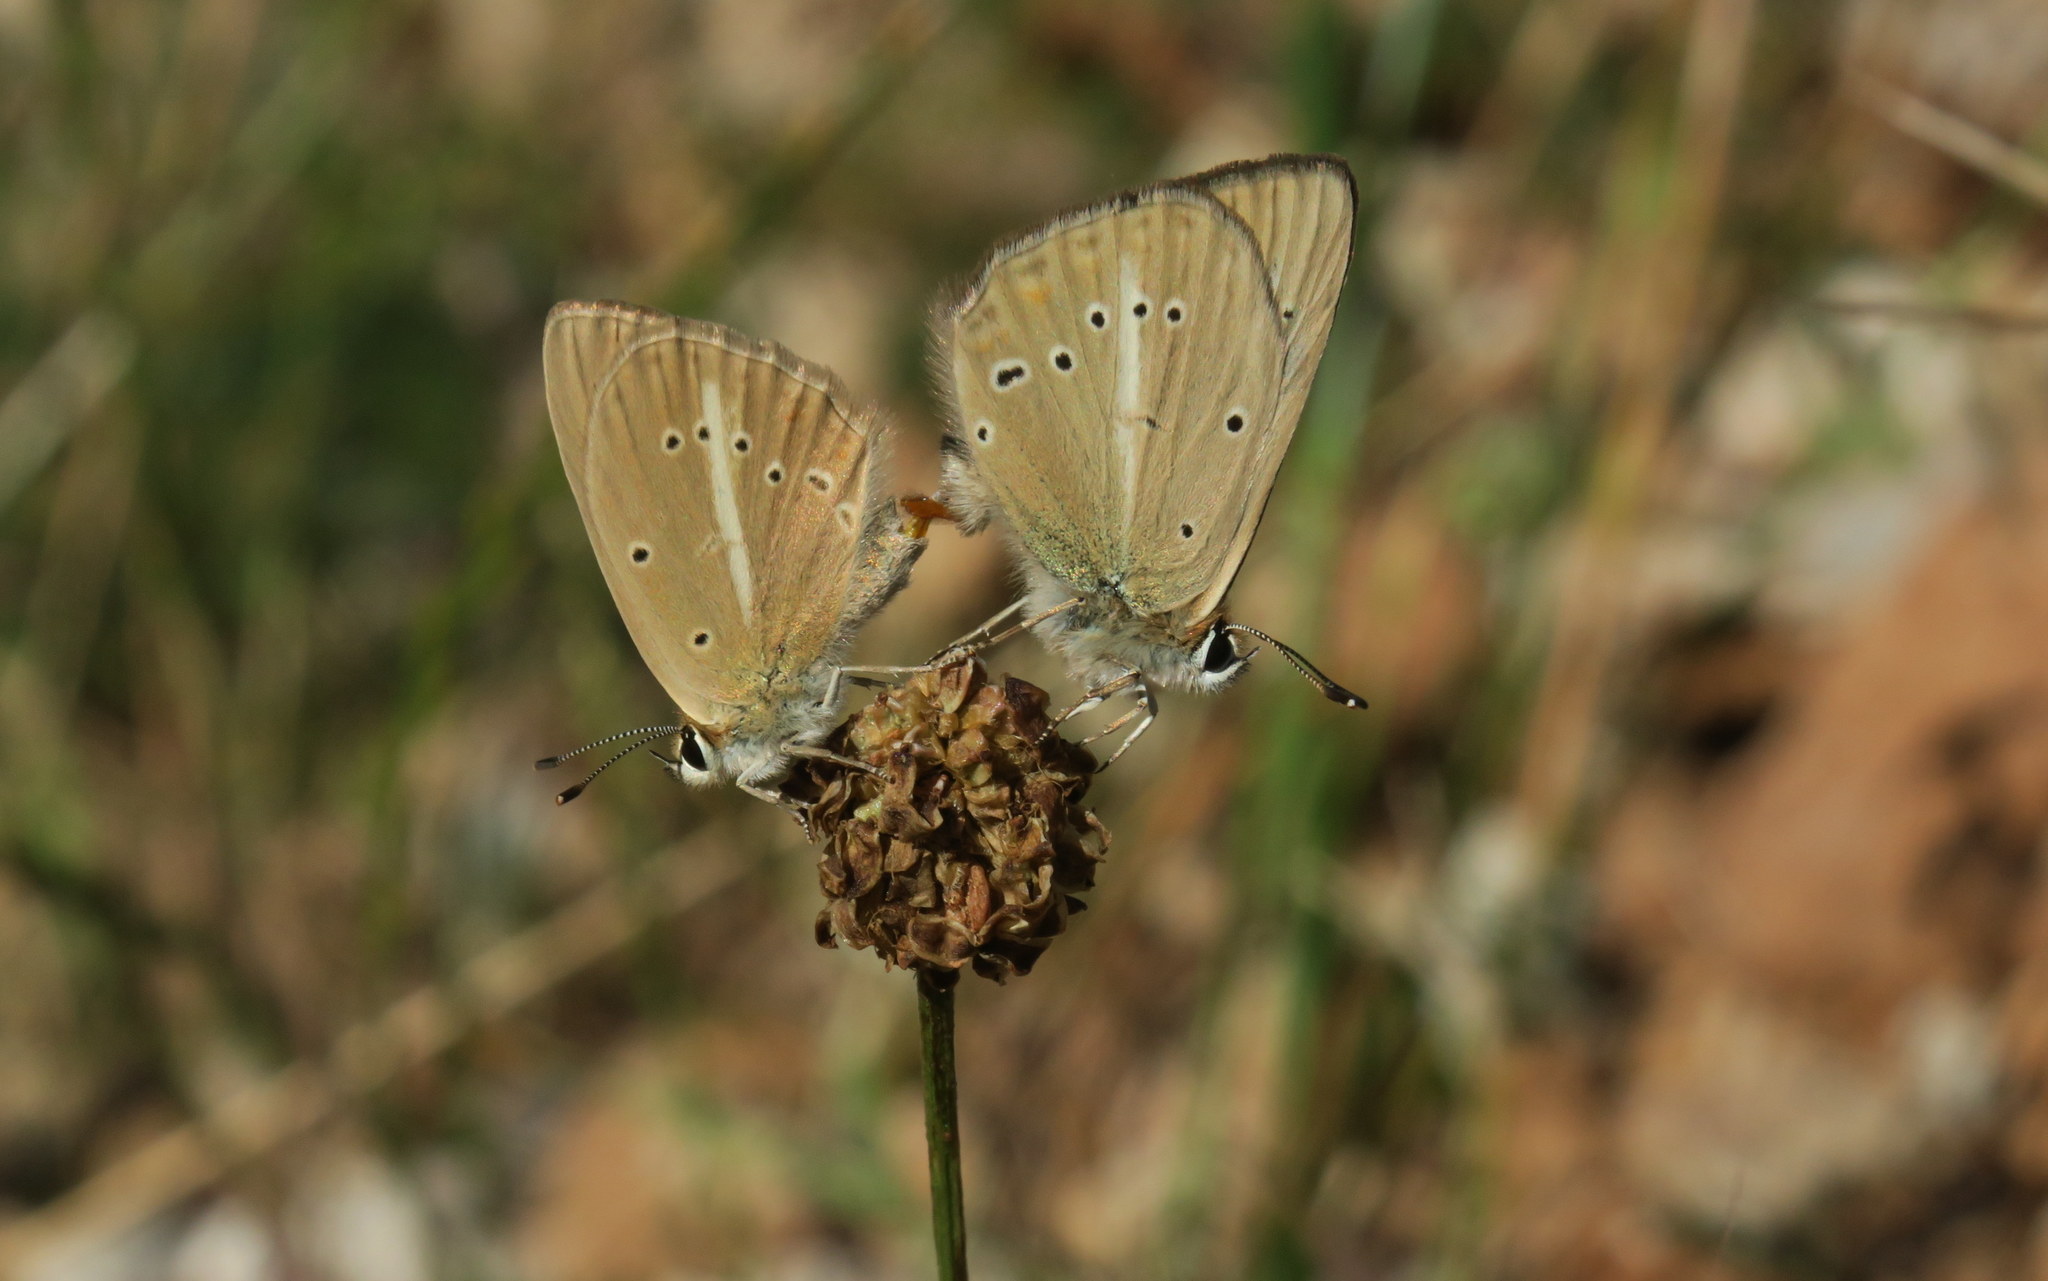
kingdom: Animalia
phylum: Arthropoda
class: Insecta
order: Lepidoptera
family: Lycaenidae
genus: Polyommatus
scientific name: Polyommatus ripartii
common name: Ripart's anomalous blue
